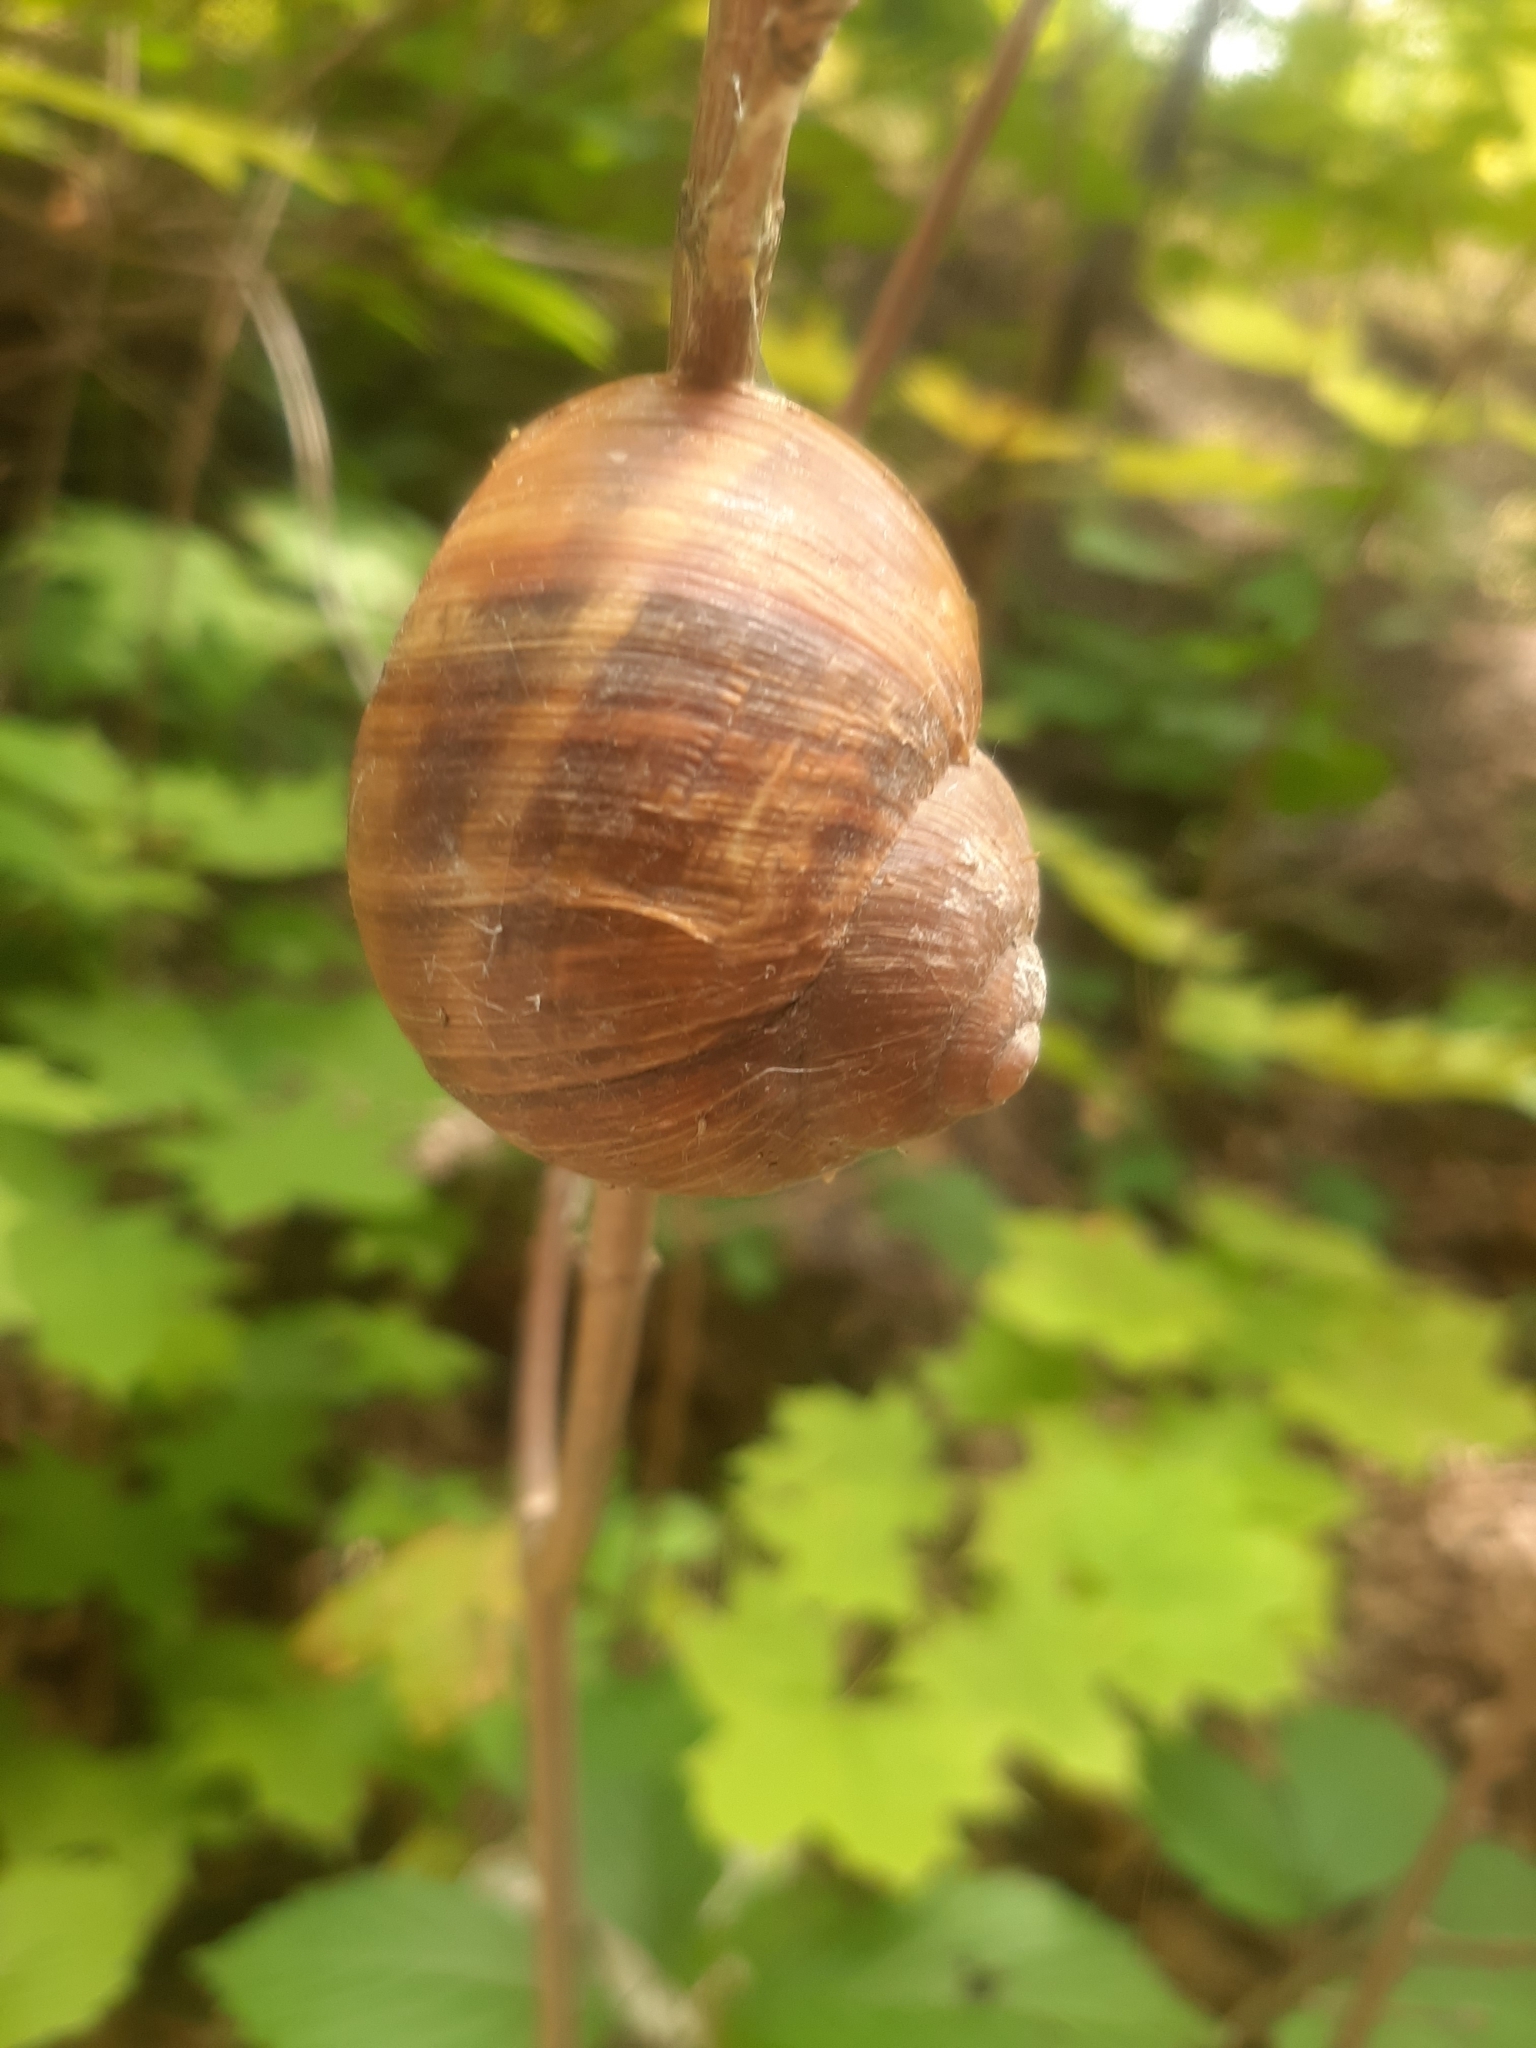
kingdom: Animalia
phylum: Mollusca
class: Gastropoda
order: Stylommatophora
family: Helicidae
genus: Helix
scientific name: Helix pomatia
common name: Roman snail
